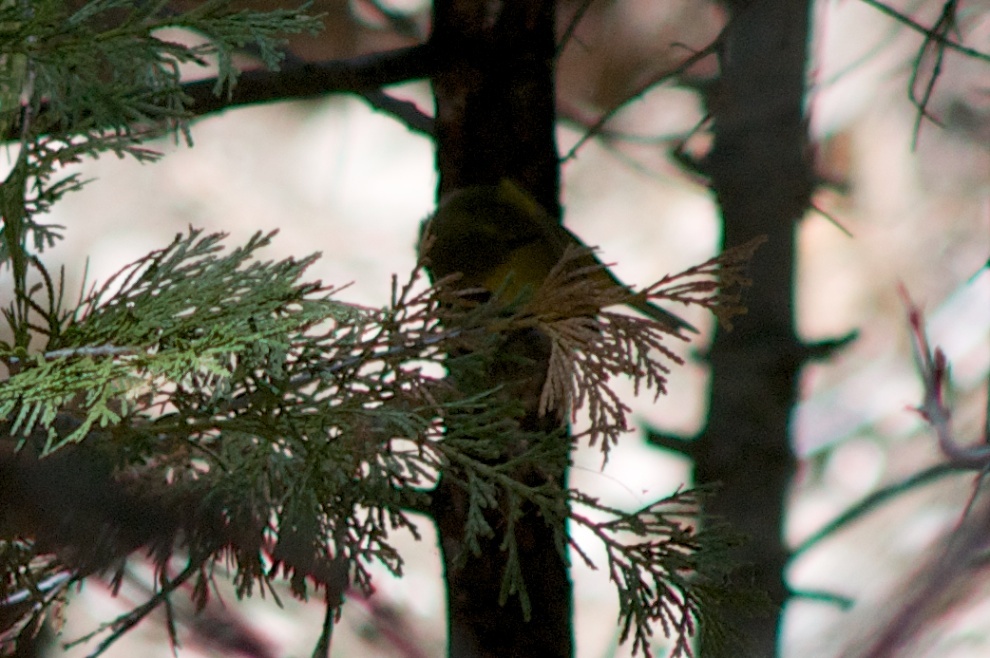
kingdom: Animalia
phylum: Chordata
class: Aves
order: Passeriformes
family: Parulidae
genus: Leiothlypis
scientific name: Leiothlypis celata
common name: Orange-crowned warbler
